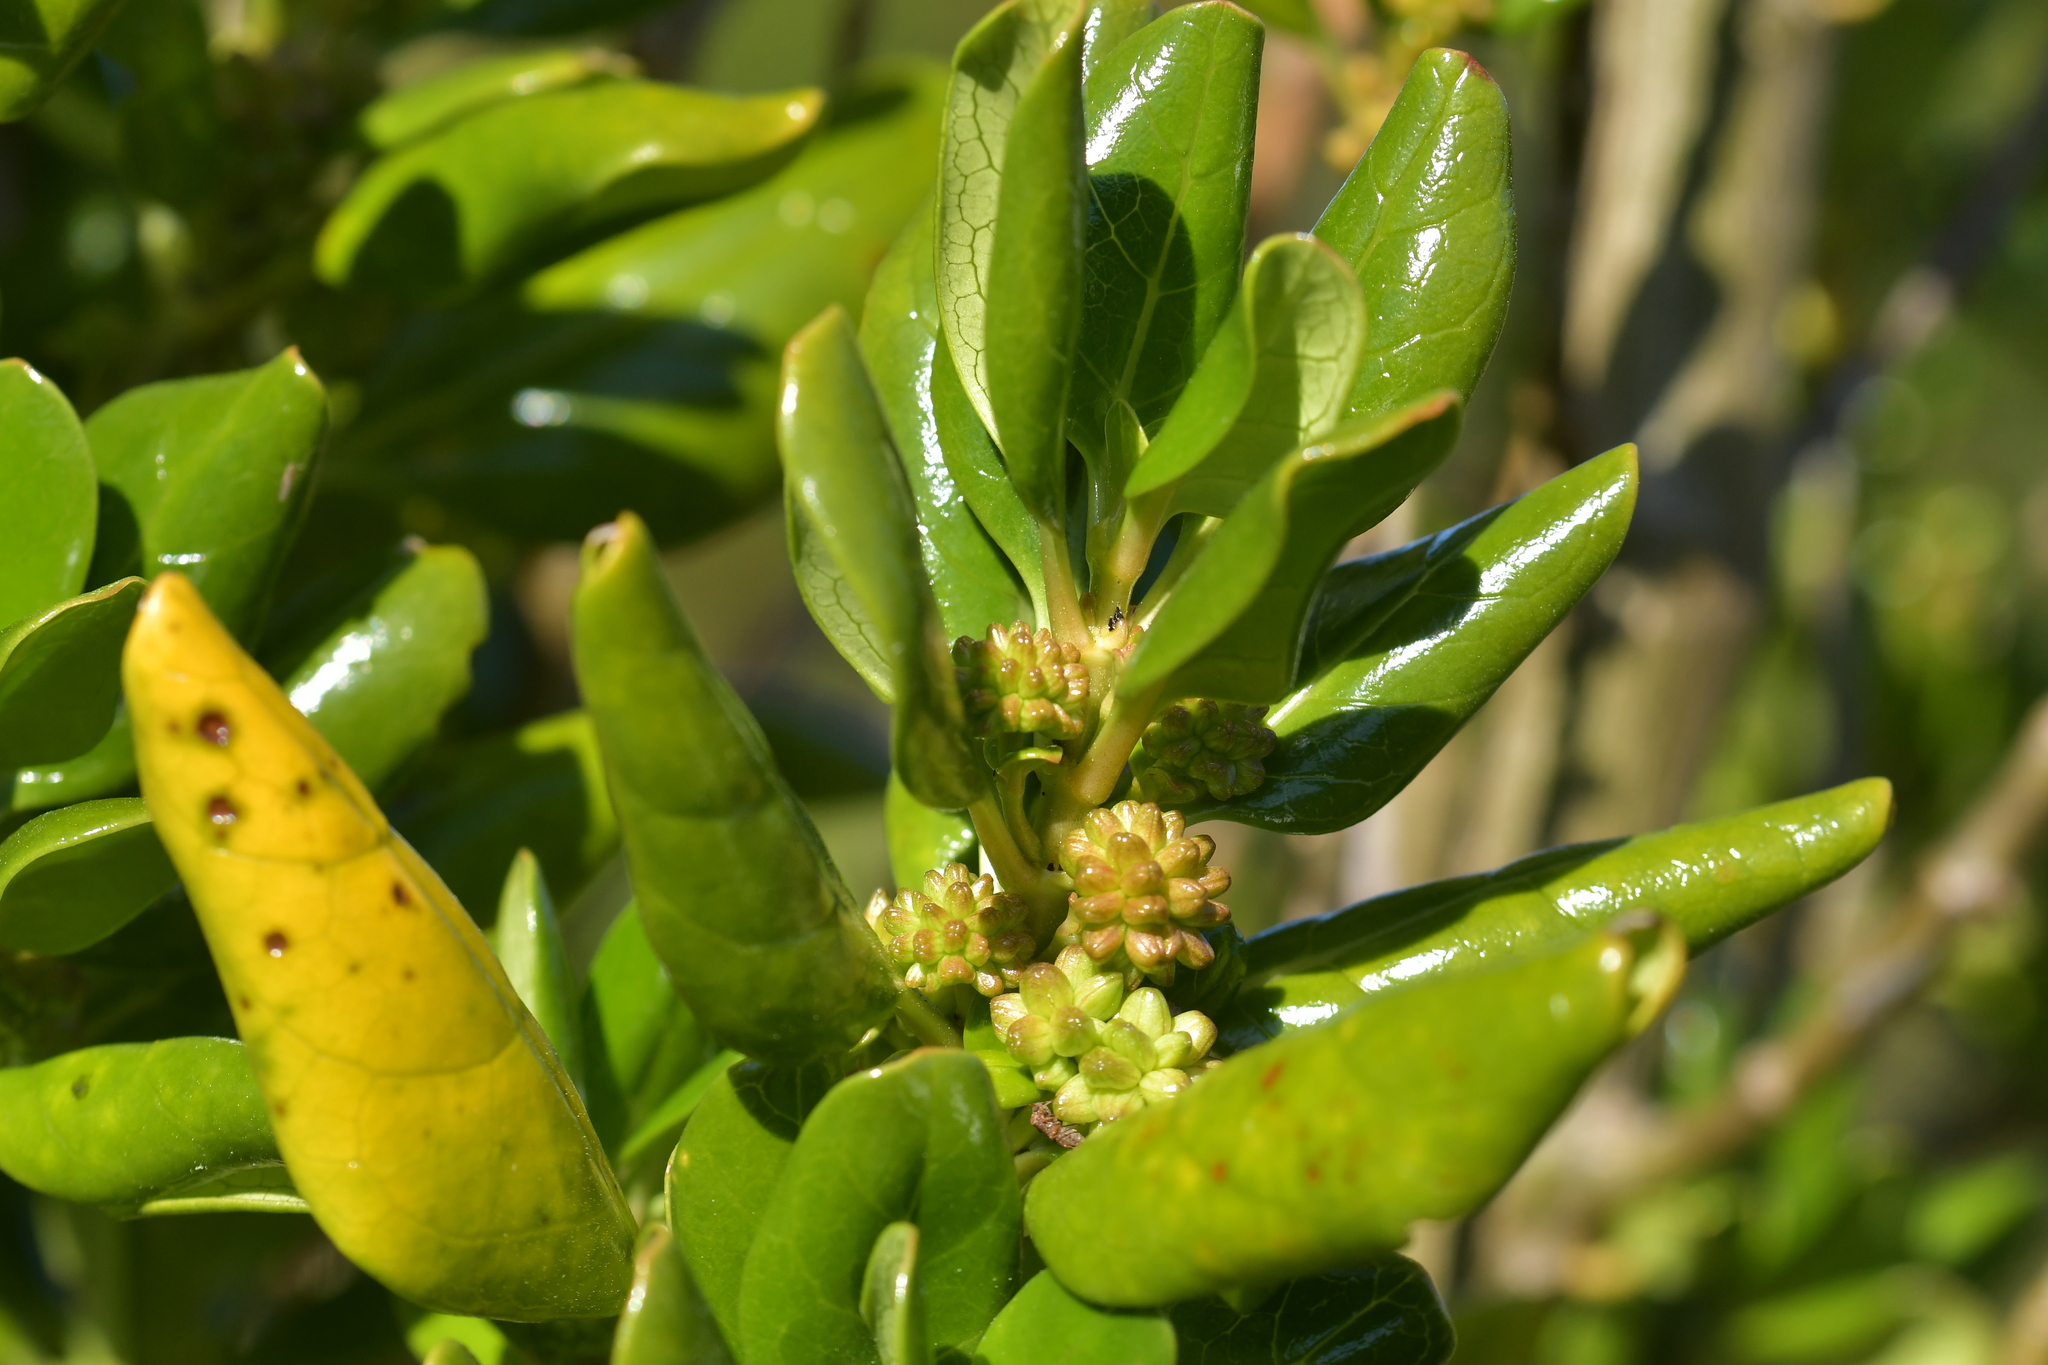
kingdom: Plantae
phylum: Tracheophyta
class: Magnoliopsida
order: Gentianales
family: Rubiaceae
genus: Coprosma
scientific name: Coprosma repens
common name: Tree bedstraw
